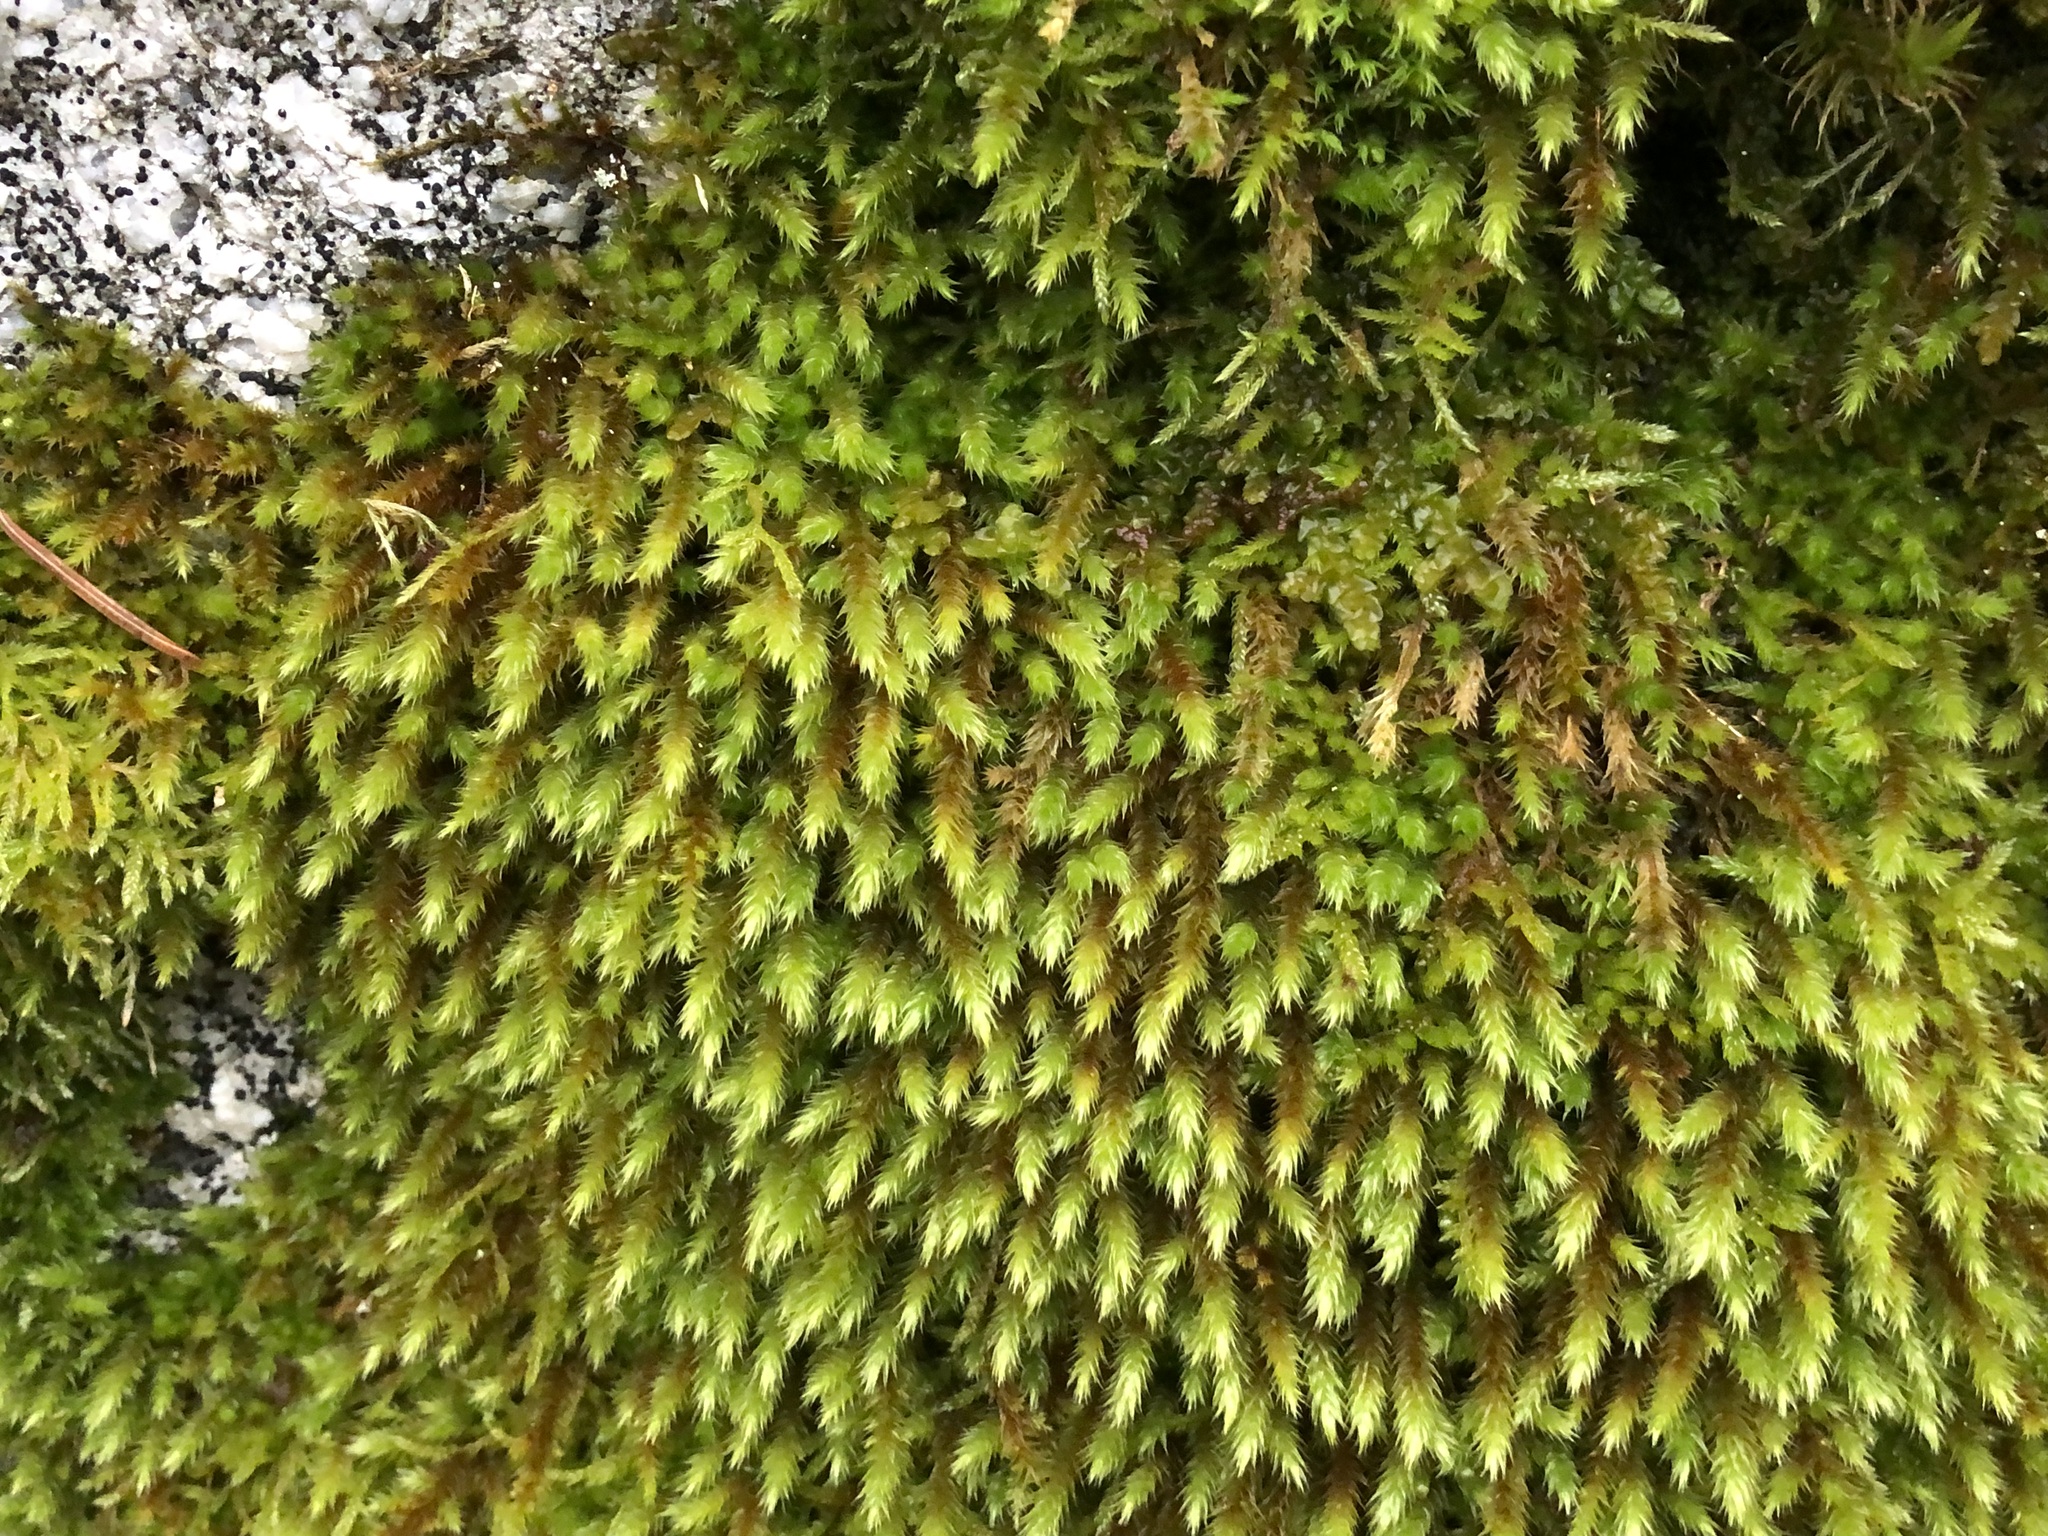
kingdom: Plantae
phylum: Bryophyta
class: Bryopsida
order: Hypnales
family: Leucodontaceae
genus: Leucodon
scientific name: Leucodon sciuroides
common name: Squirrel-tail moss
